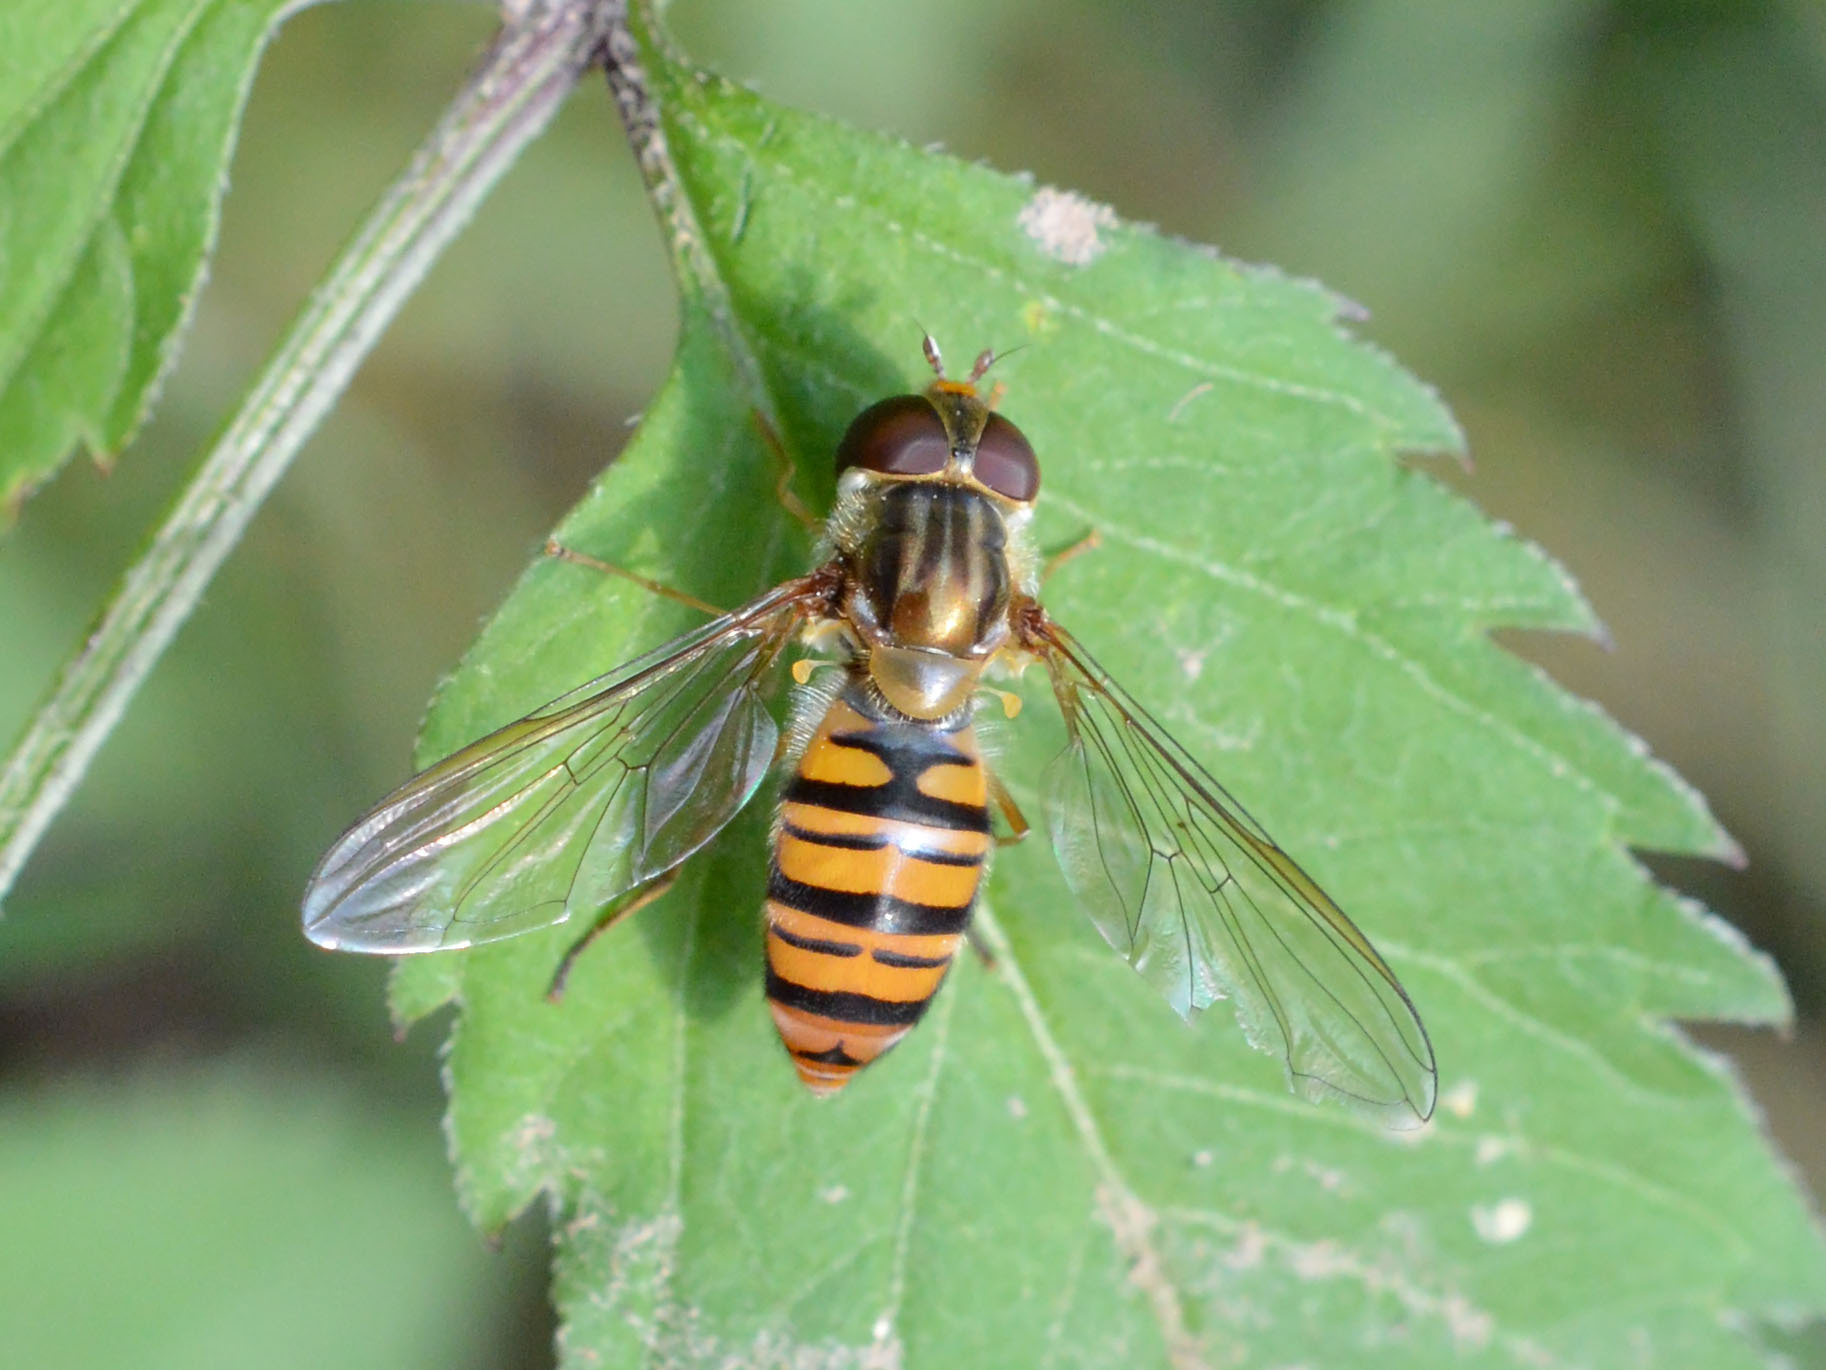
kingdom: Animalia
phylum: Arthropoda
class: Insecta
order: Diptera
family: Syrphidae
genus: Episyrphus
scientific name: Episyrphus balteatus
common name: Marmalade hoverfly
